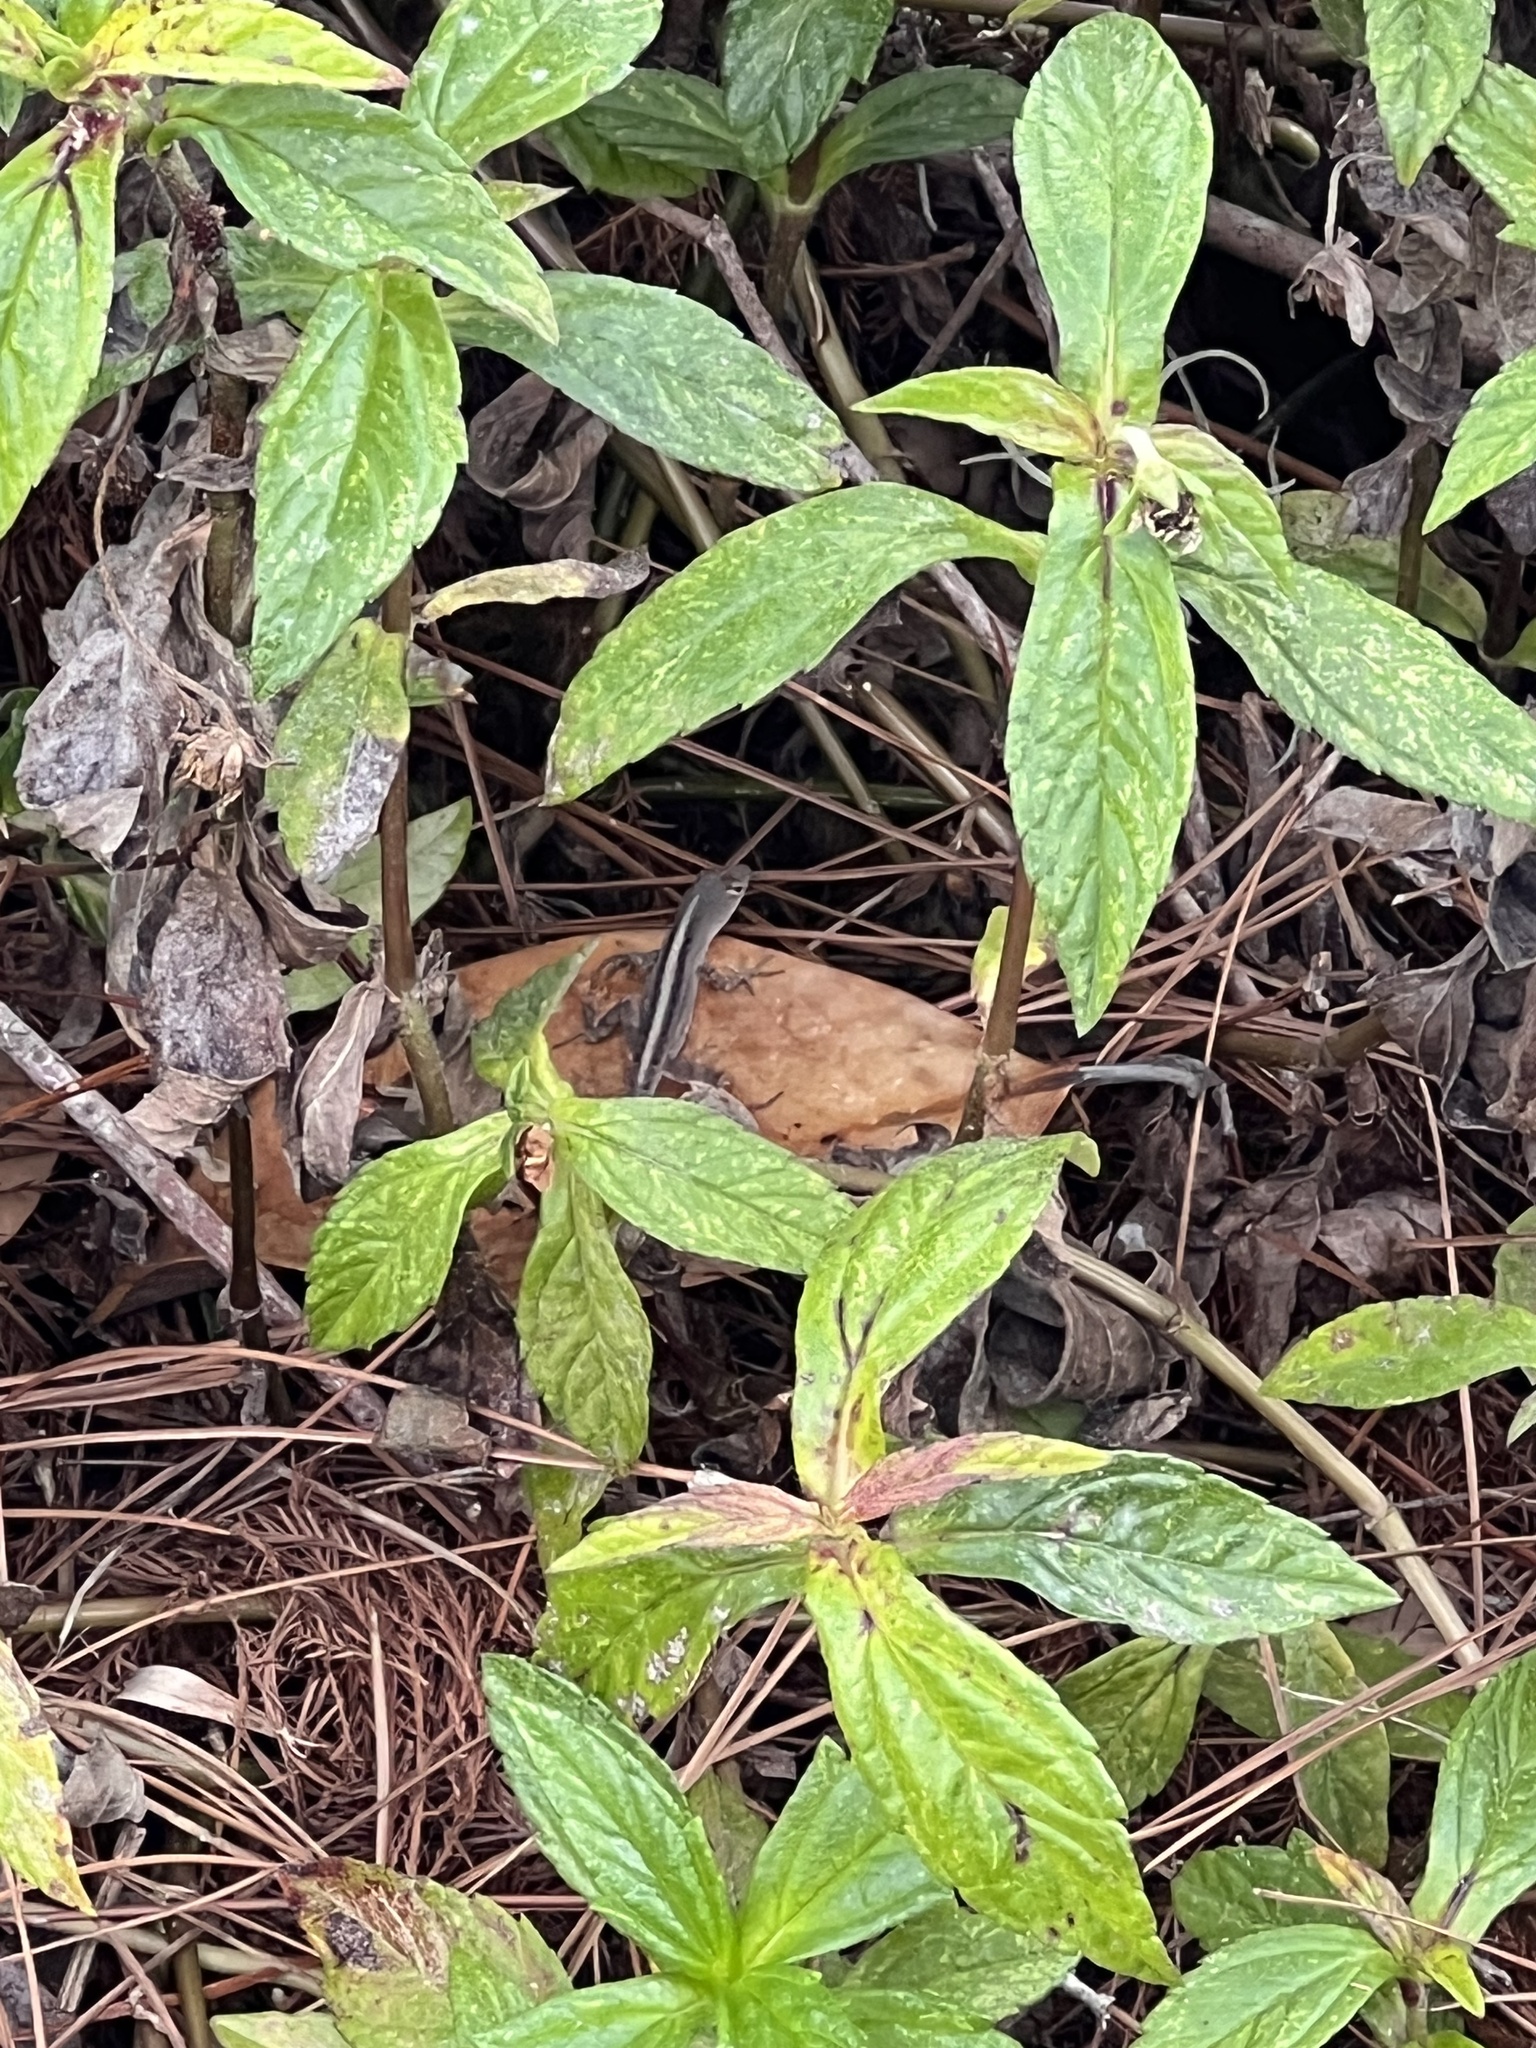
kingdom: Animalia
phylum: Chordata
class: Squamata
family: Dactyloidae
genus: Anolis
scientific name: Anolis sagrei
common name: Brown anole
